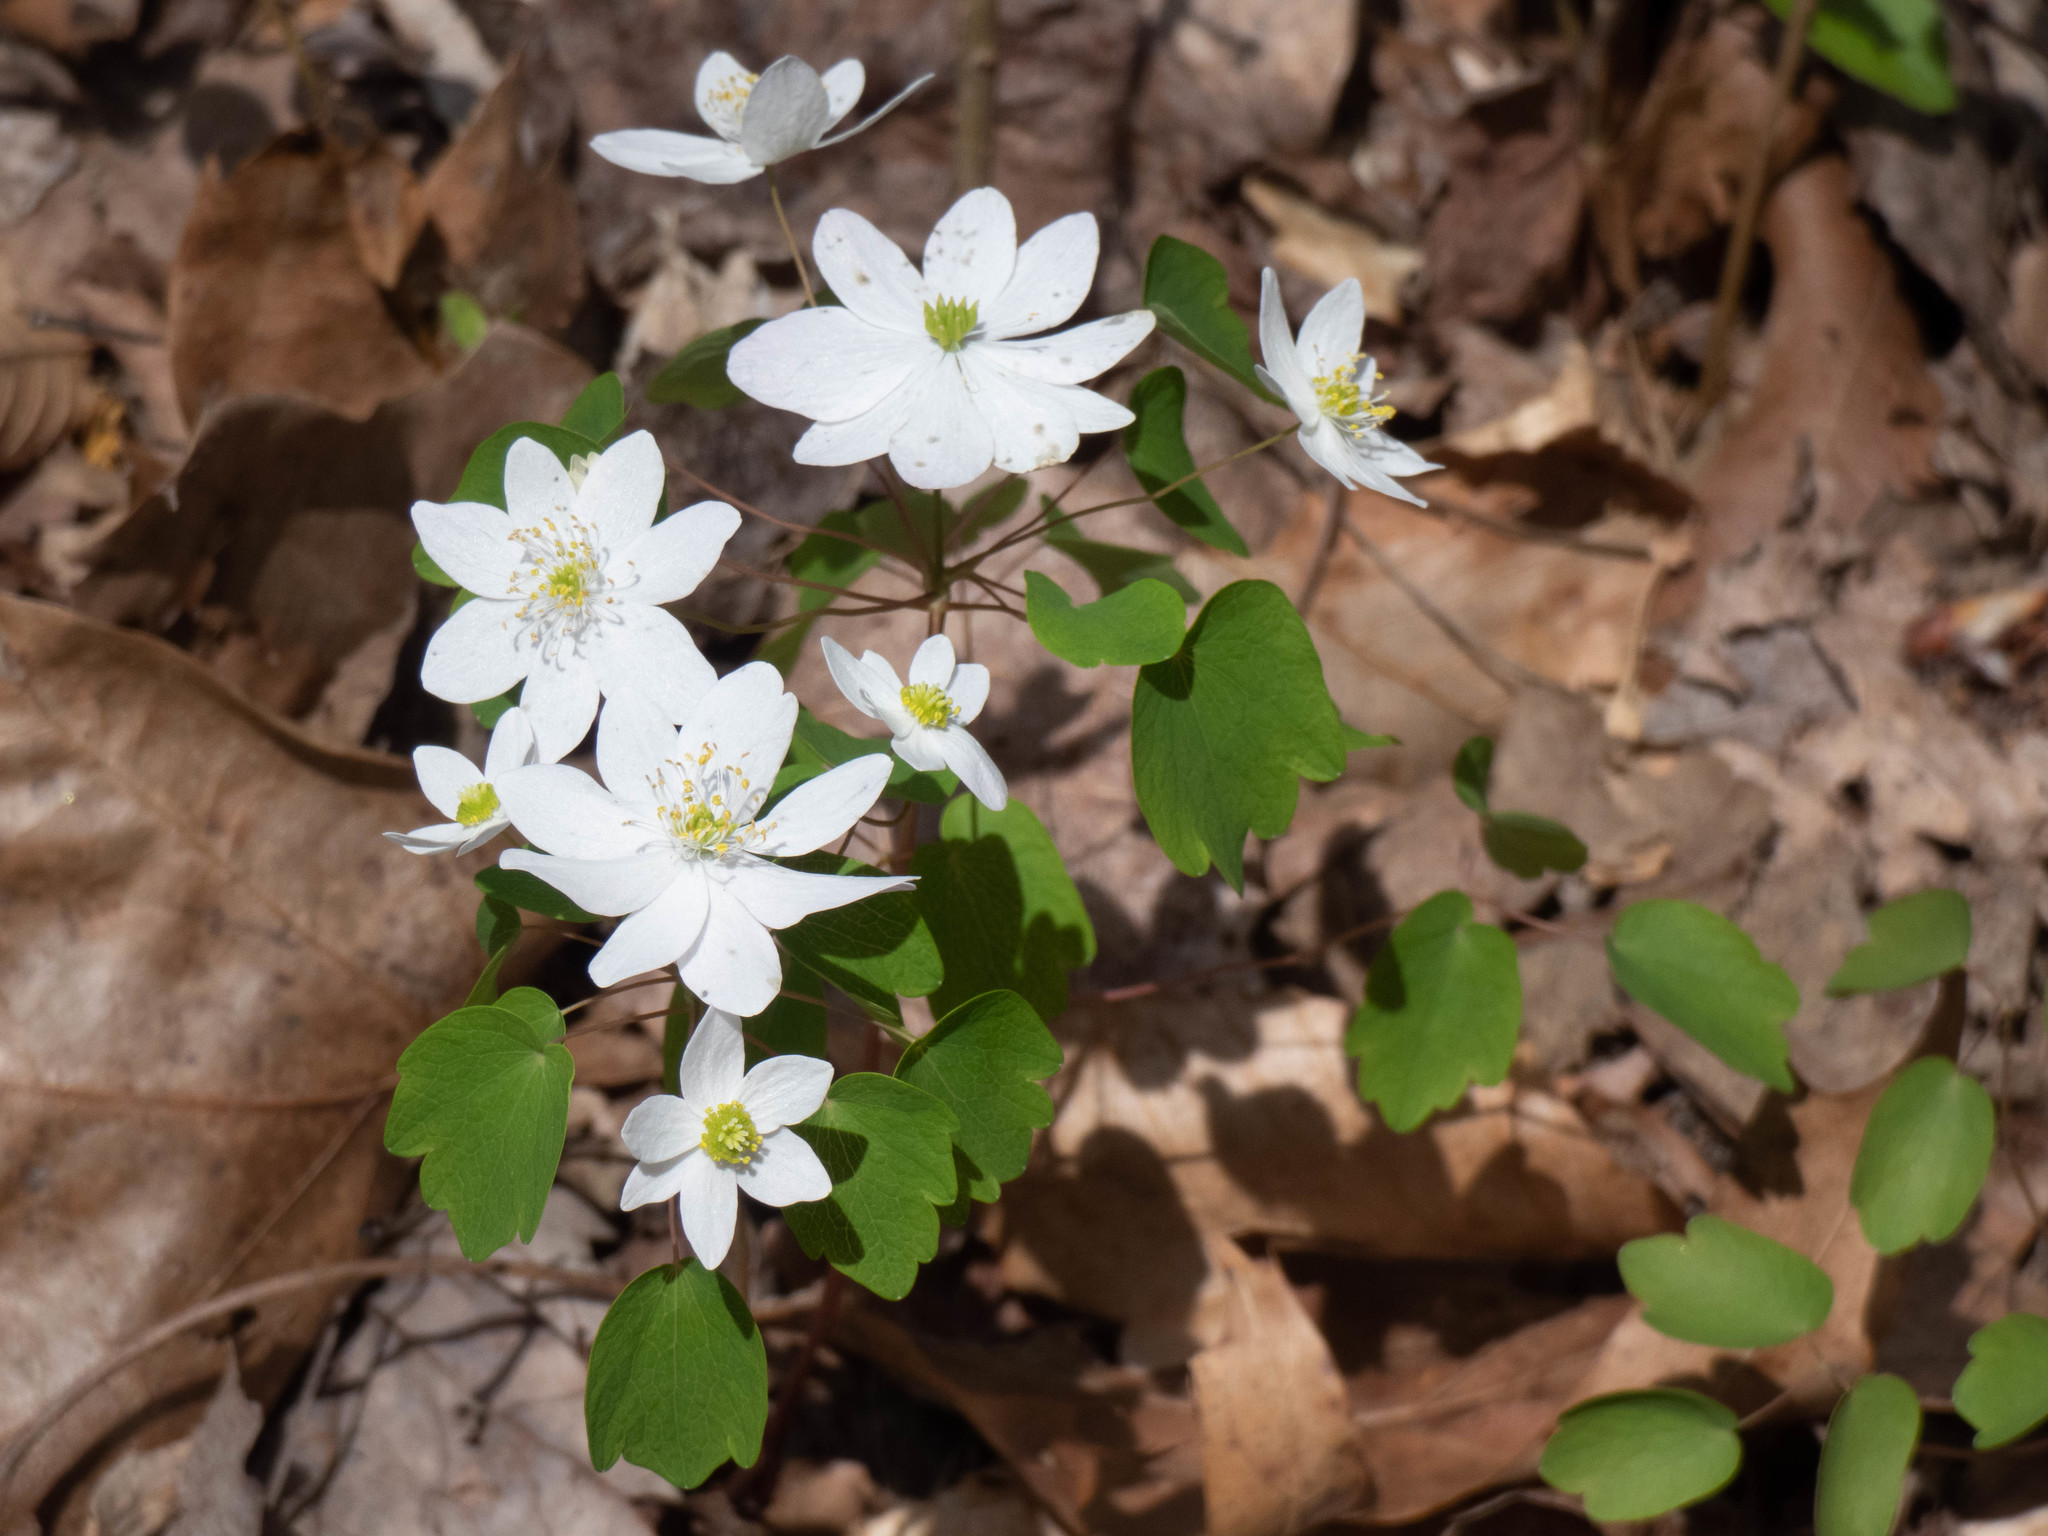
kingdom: Plantae
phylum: Tracheophyta
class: Magnoliopsida
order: Ranunculales
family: Ranunculaceae
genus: Thalictrum
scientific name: Thalictrum thalictroides
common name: Rue-anemone
